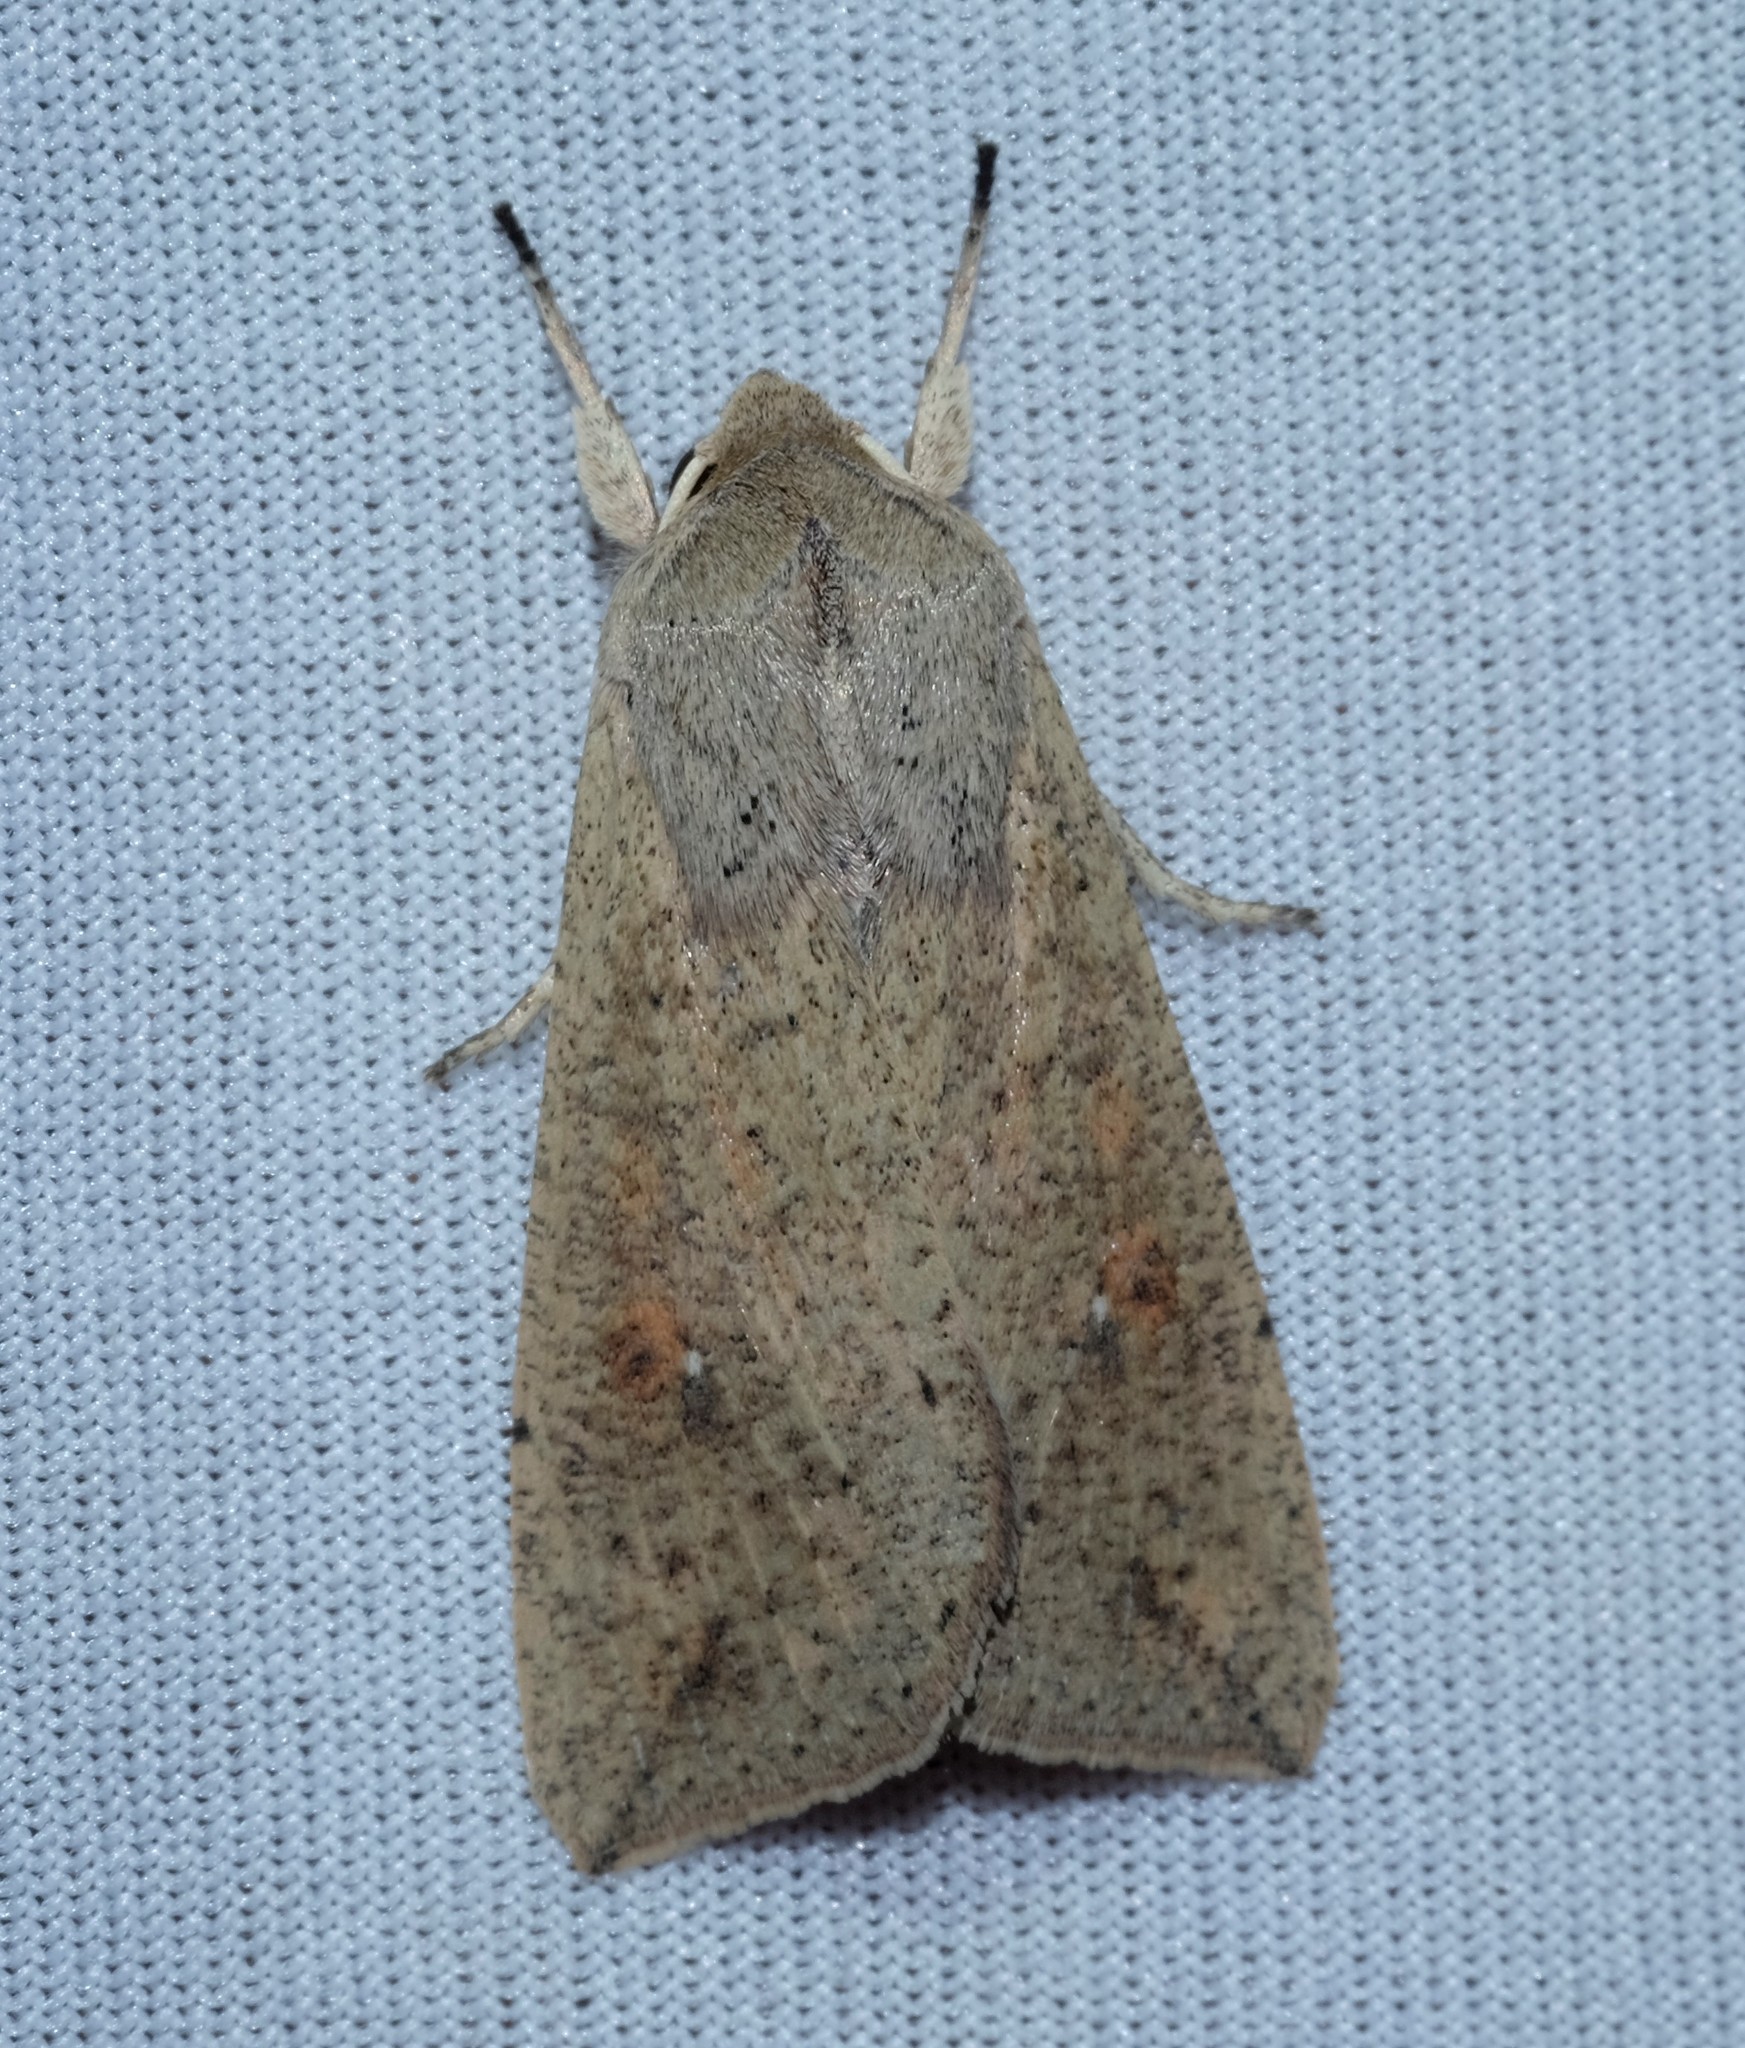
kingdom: Animalia
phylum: Arthropoda
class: Insecta
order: Lepidoptera
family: Noctuidae
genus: Mythimna
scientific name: Mythimna convecta
